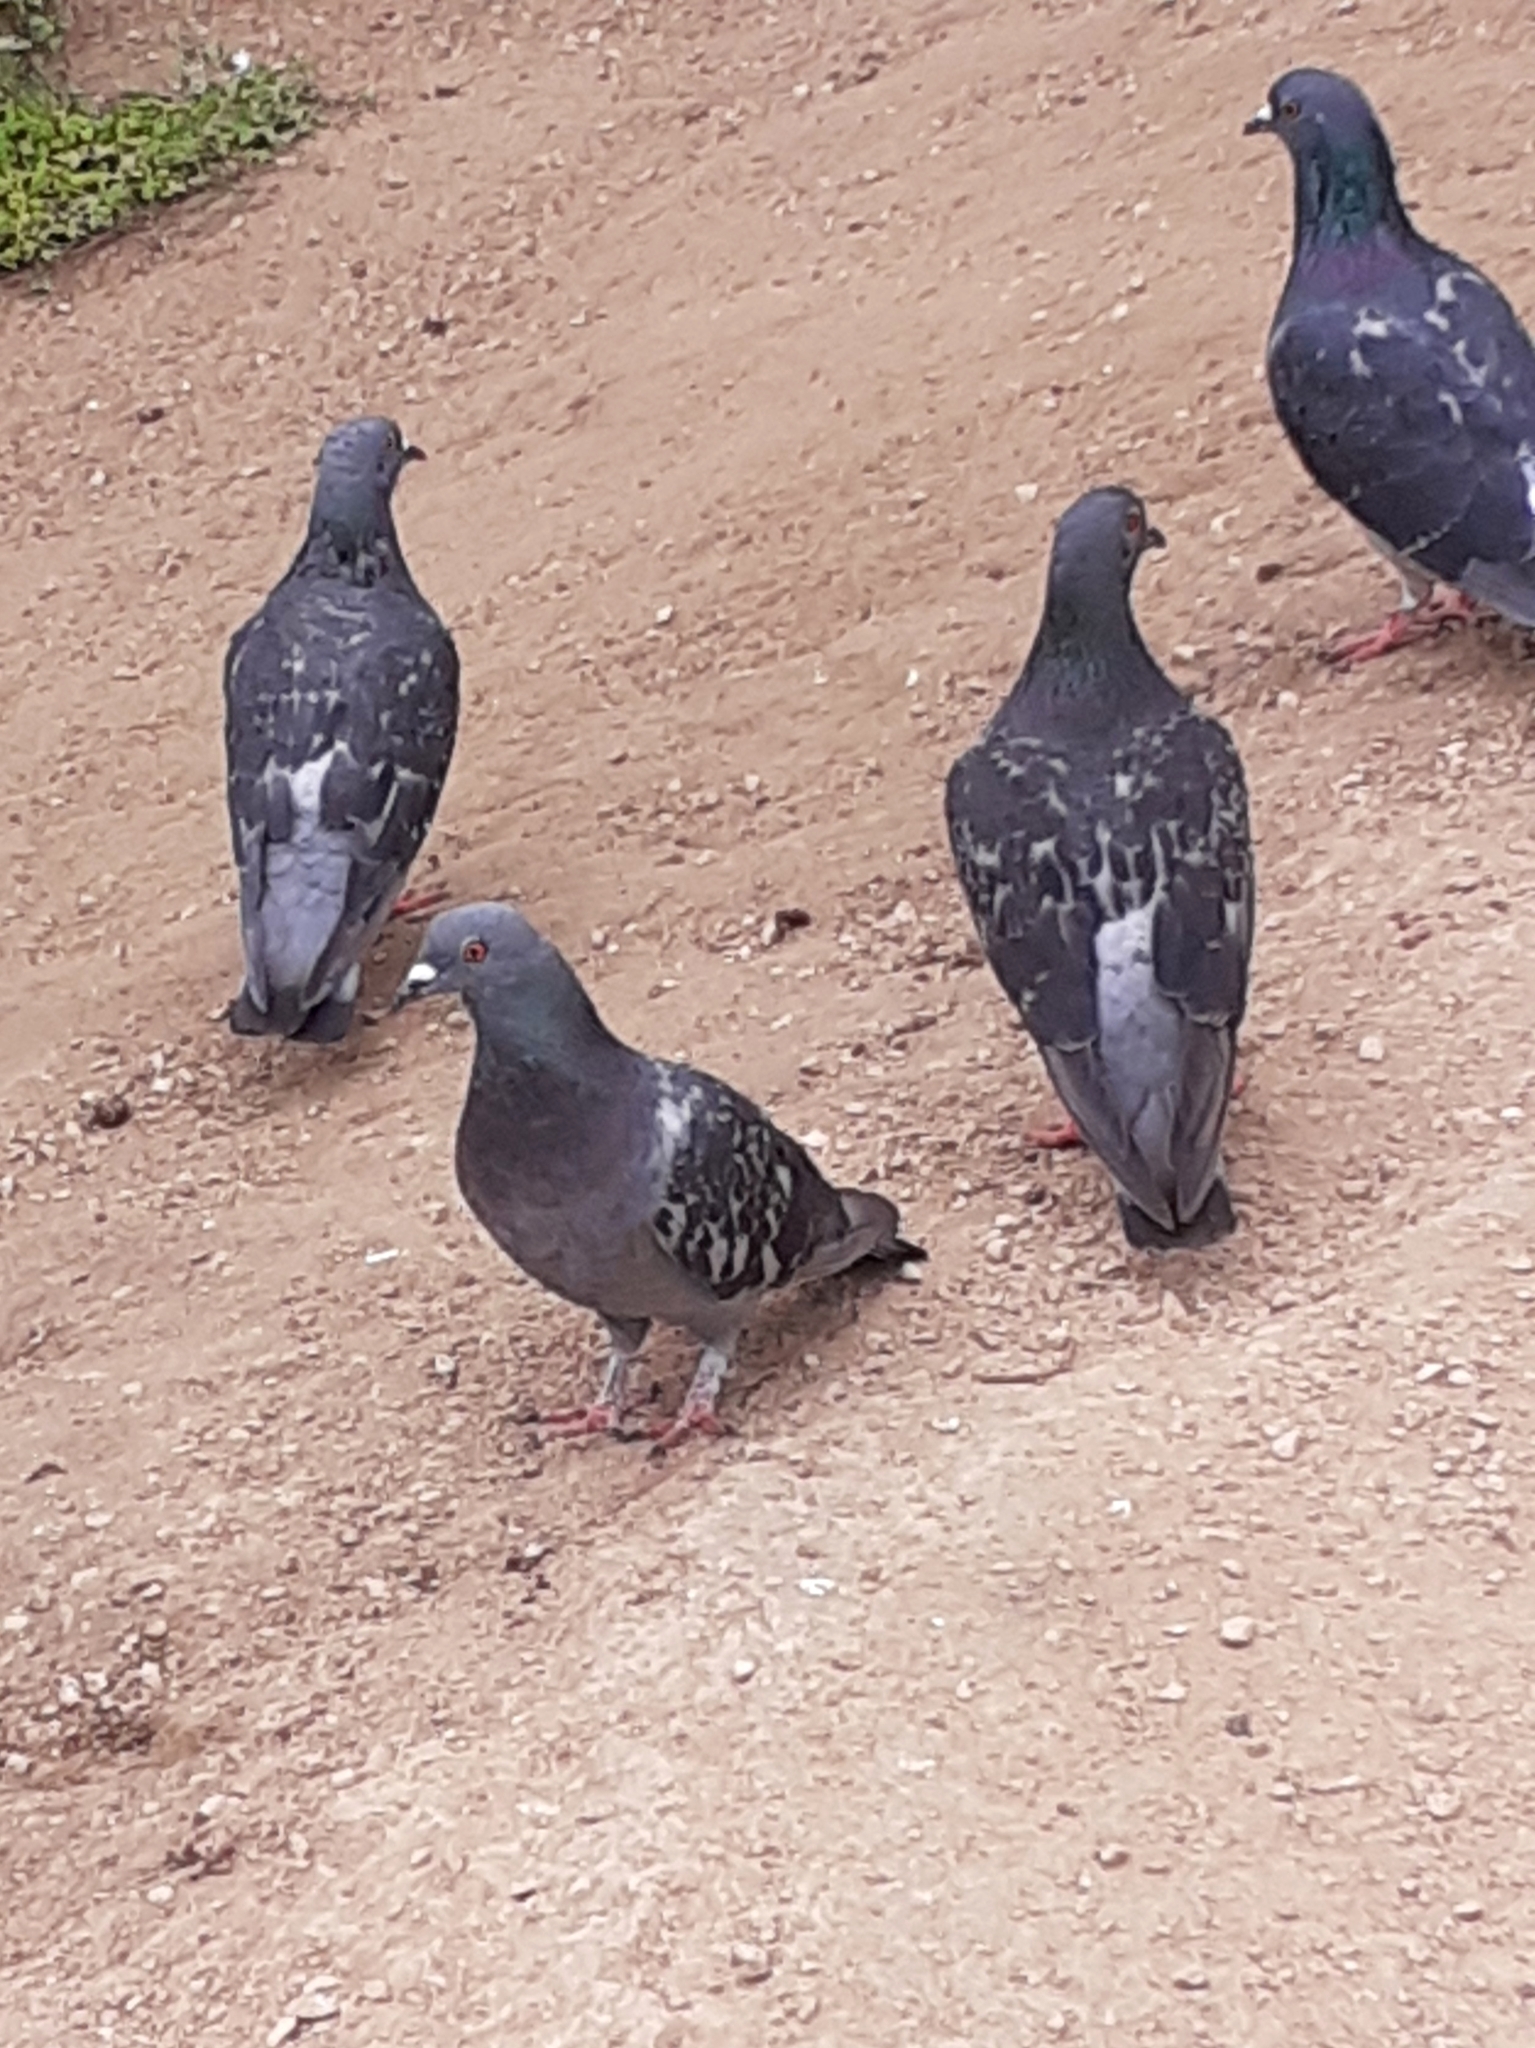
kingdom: Animalia
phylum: Chordata
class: Aves
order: Columbiformes
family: Columbidae
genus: Columba
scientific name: Columba livia
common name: Rock pigeon
